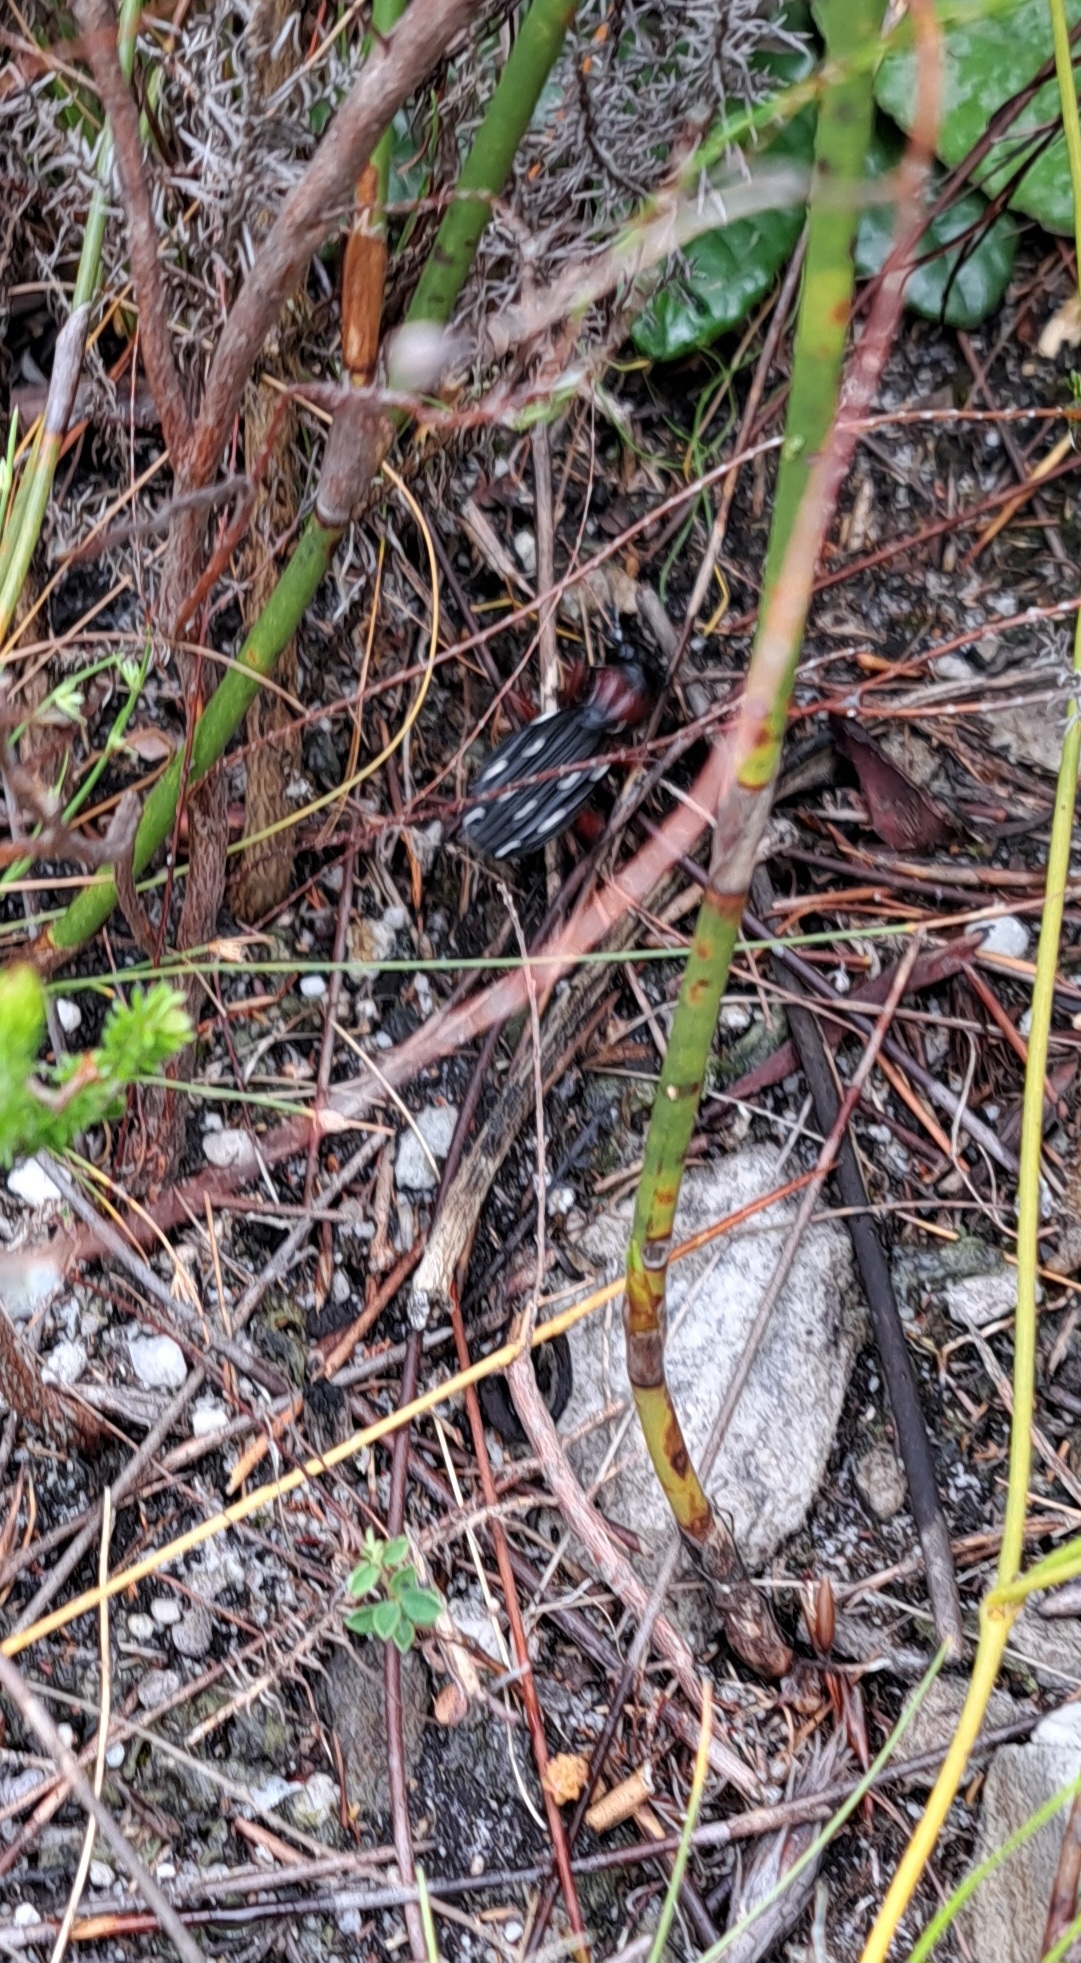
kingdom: Animalia
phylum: Arthropoda
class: Insecta
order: Coleoptera
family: Carabidae
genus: Anthia
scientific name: Anthia decemguttata
